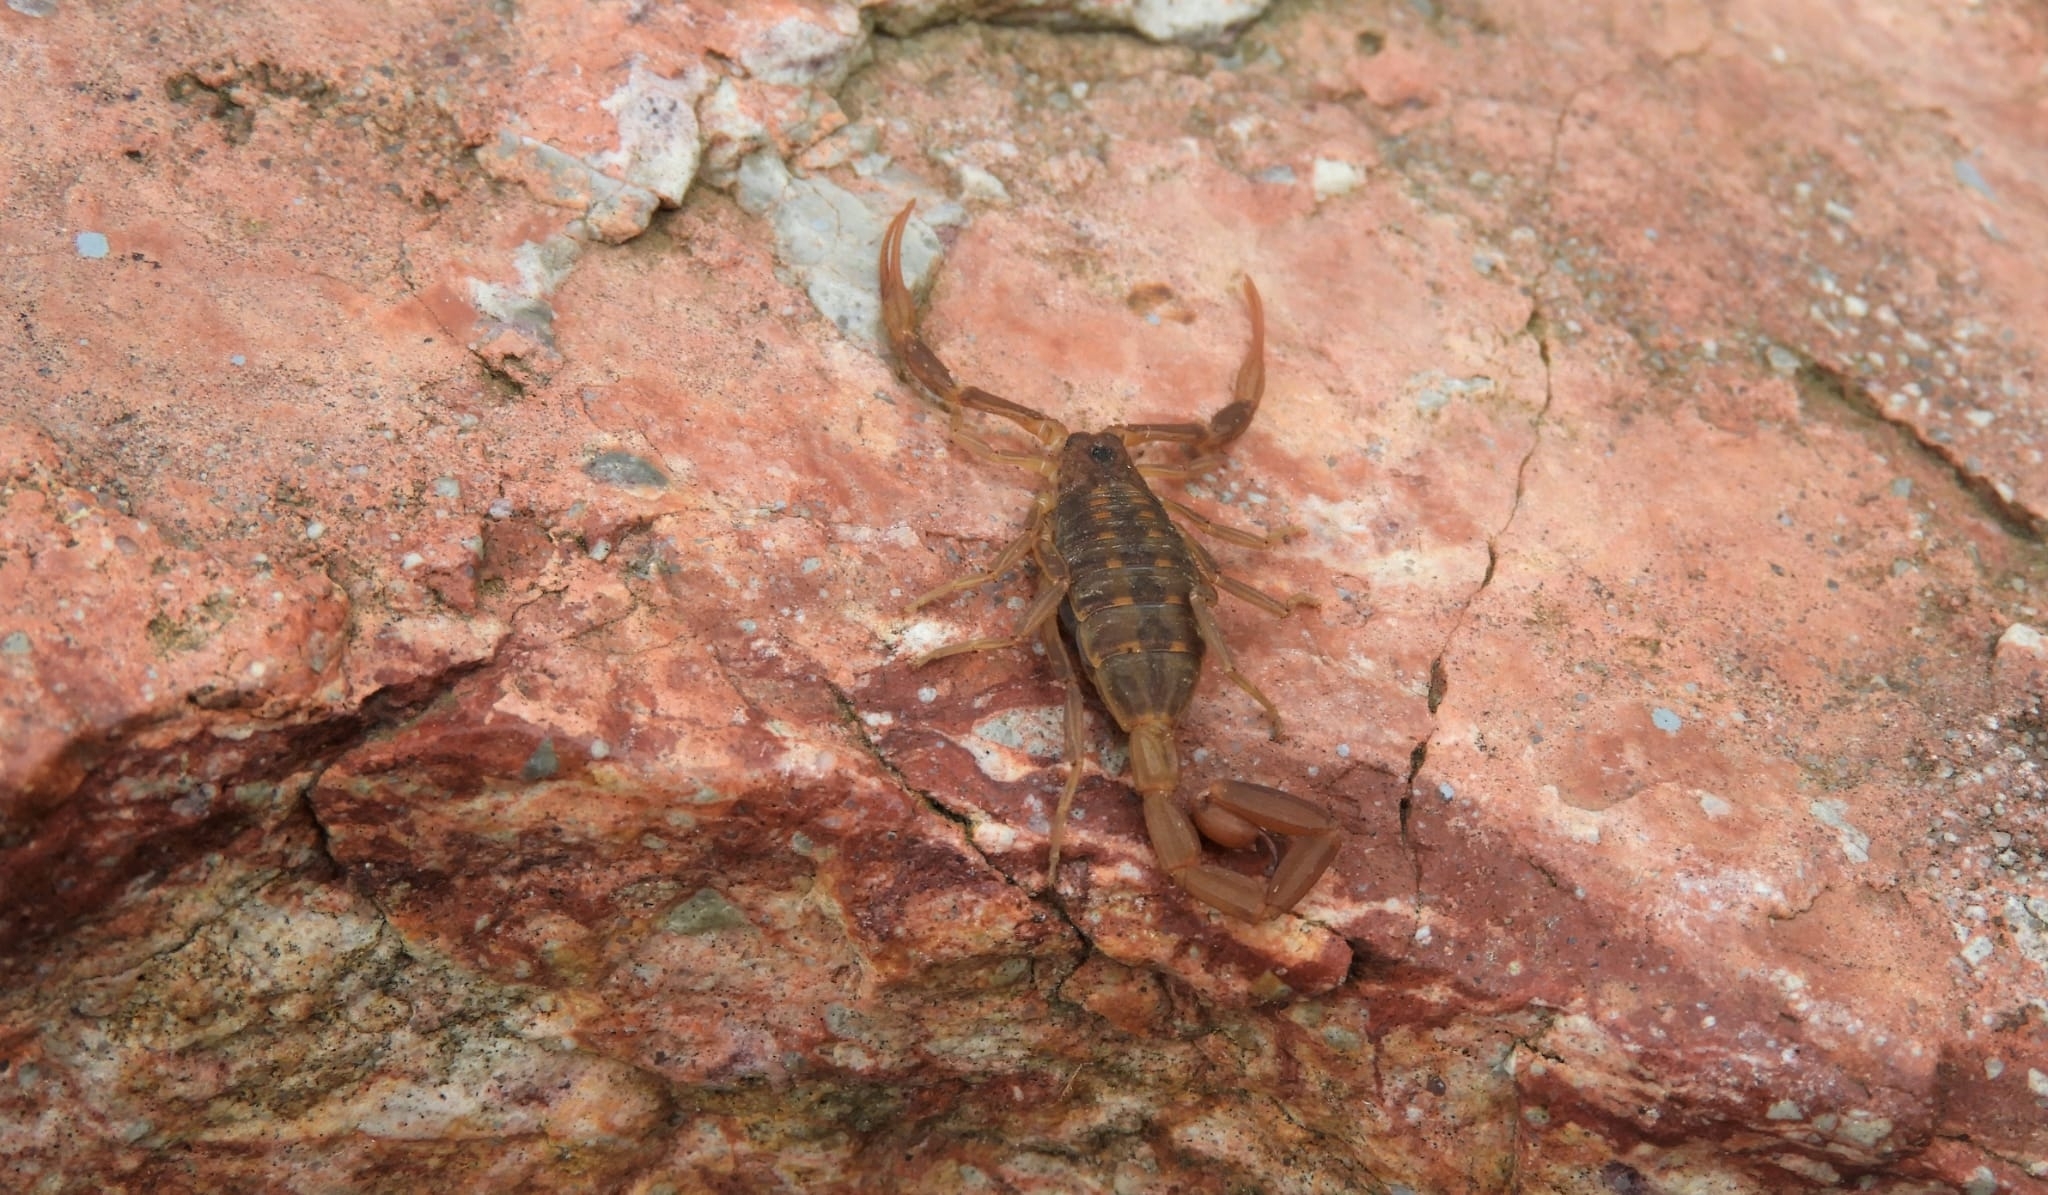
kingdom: Animalia
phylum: Arthropoda
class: Arachnida
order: Scorpiones
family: Buthidae
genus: Tityus
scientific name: Tityus uruguayensis
